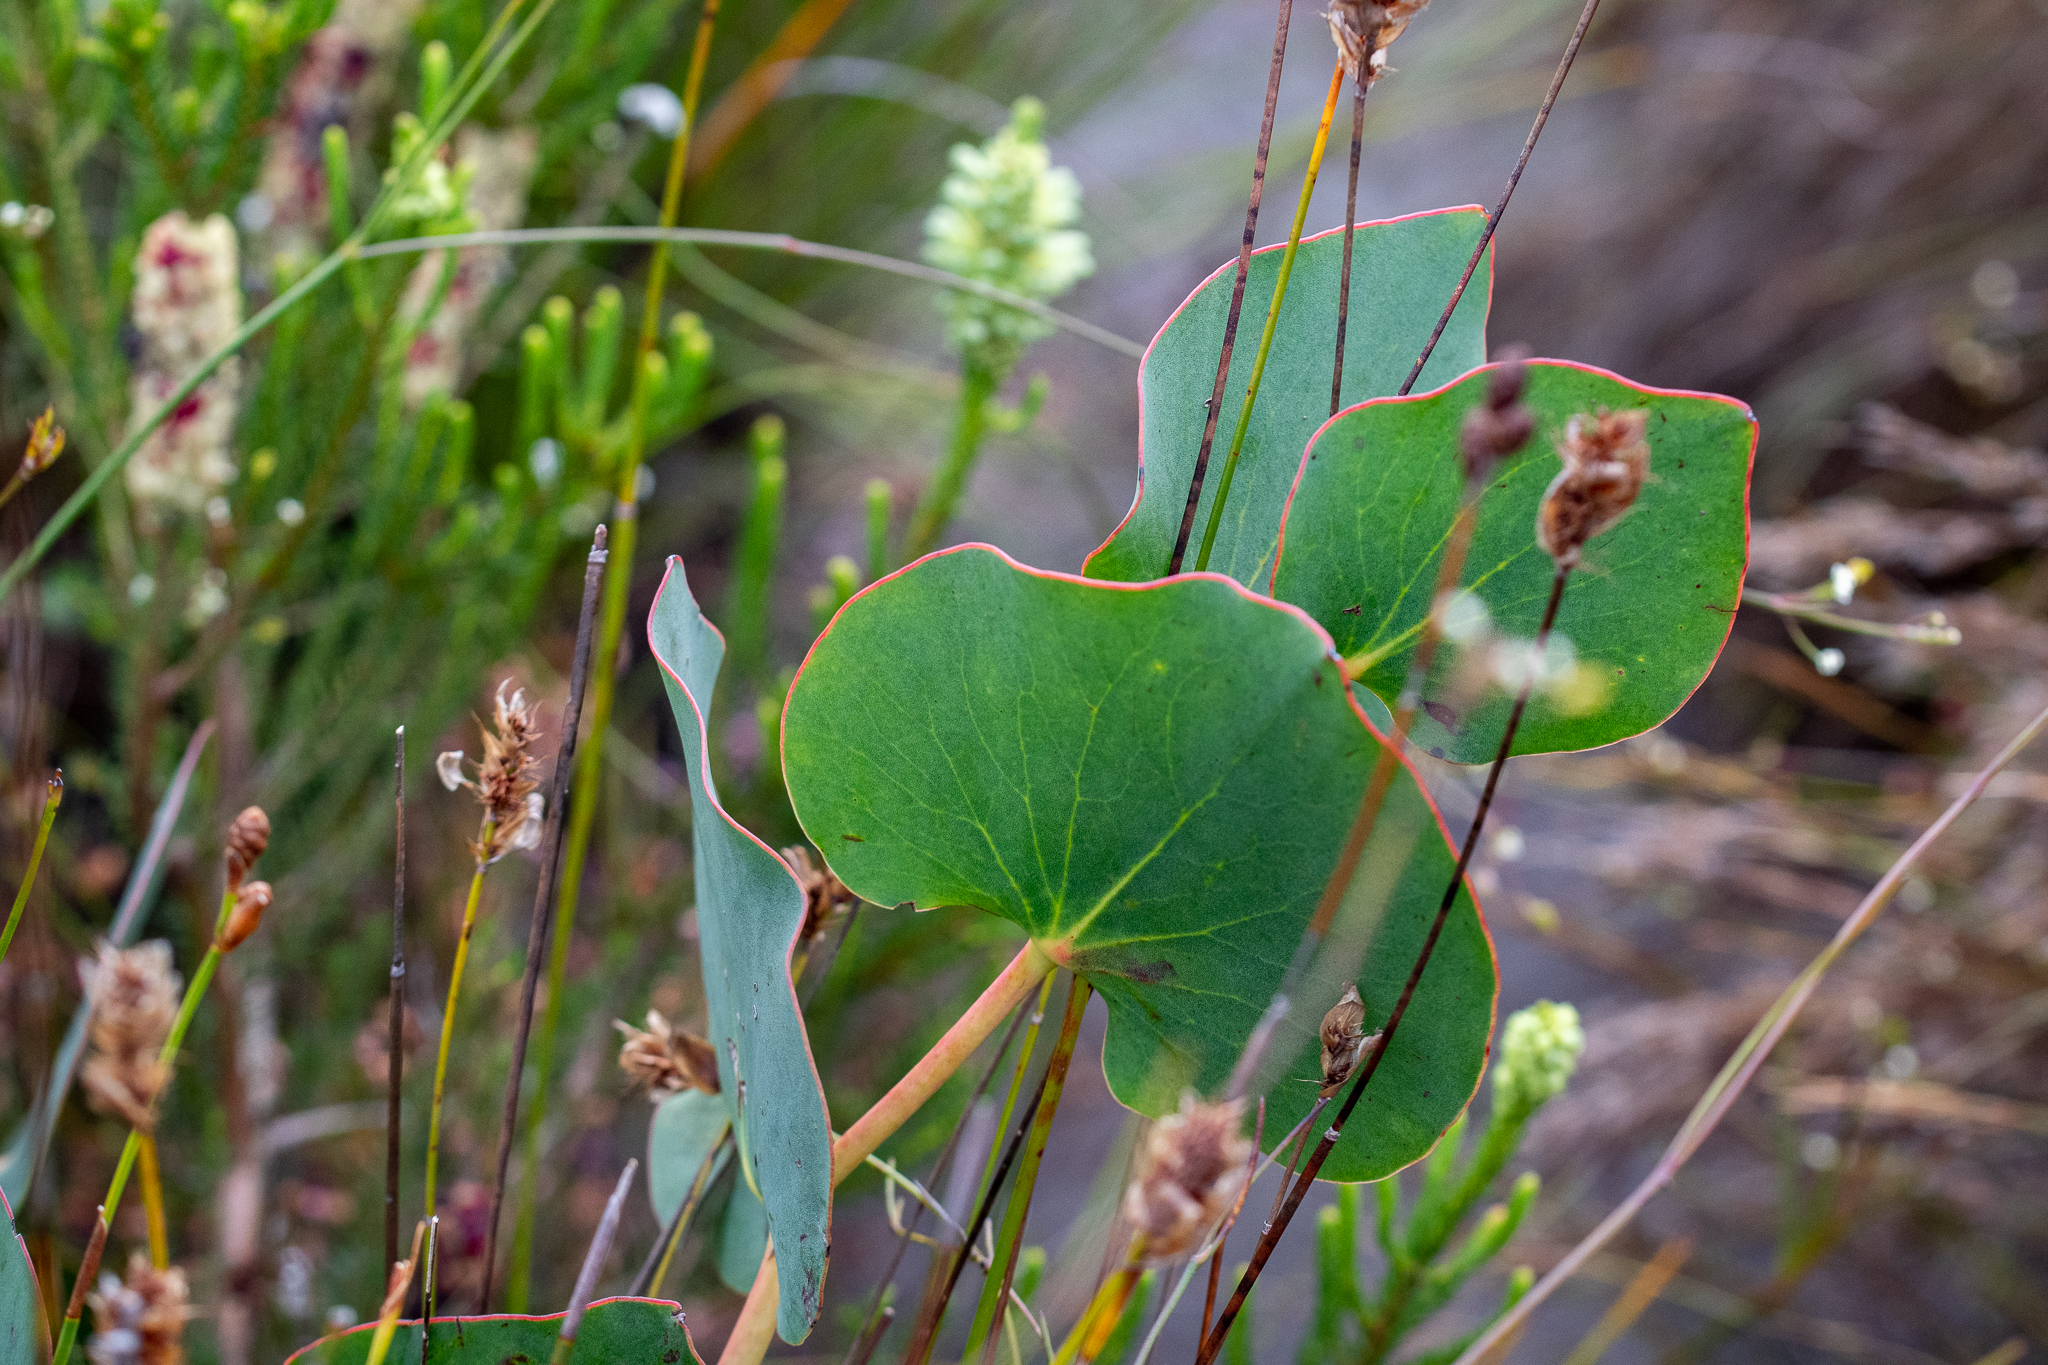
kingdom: Plantae
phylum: Tracheophyta
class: Magnoliopsida
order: Proteales
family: Proteaceae
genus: Protea
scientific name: Protea cordata
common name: Heart-leaf sugarbush
